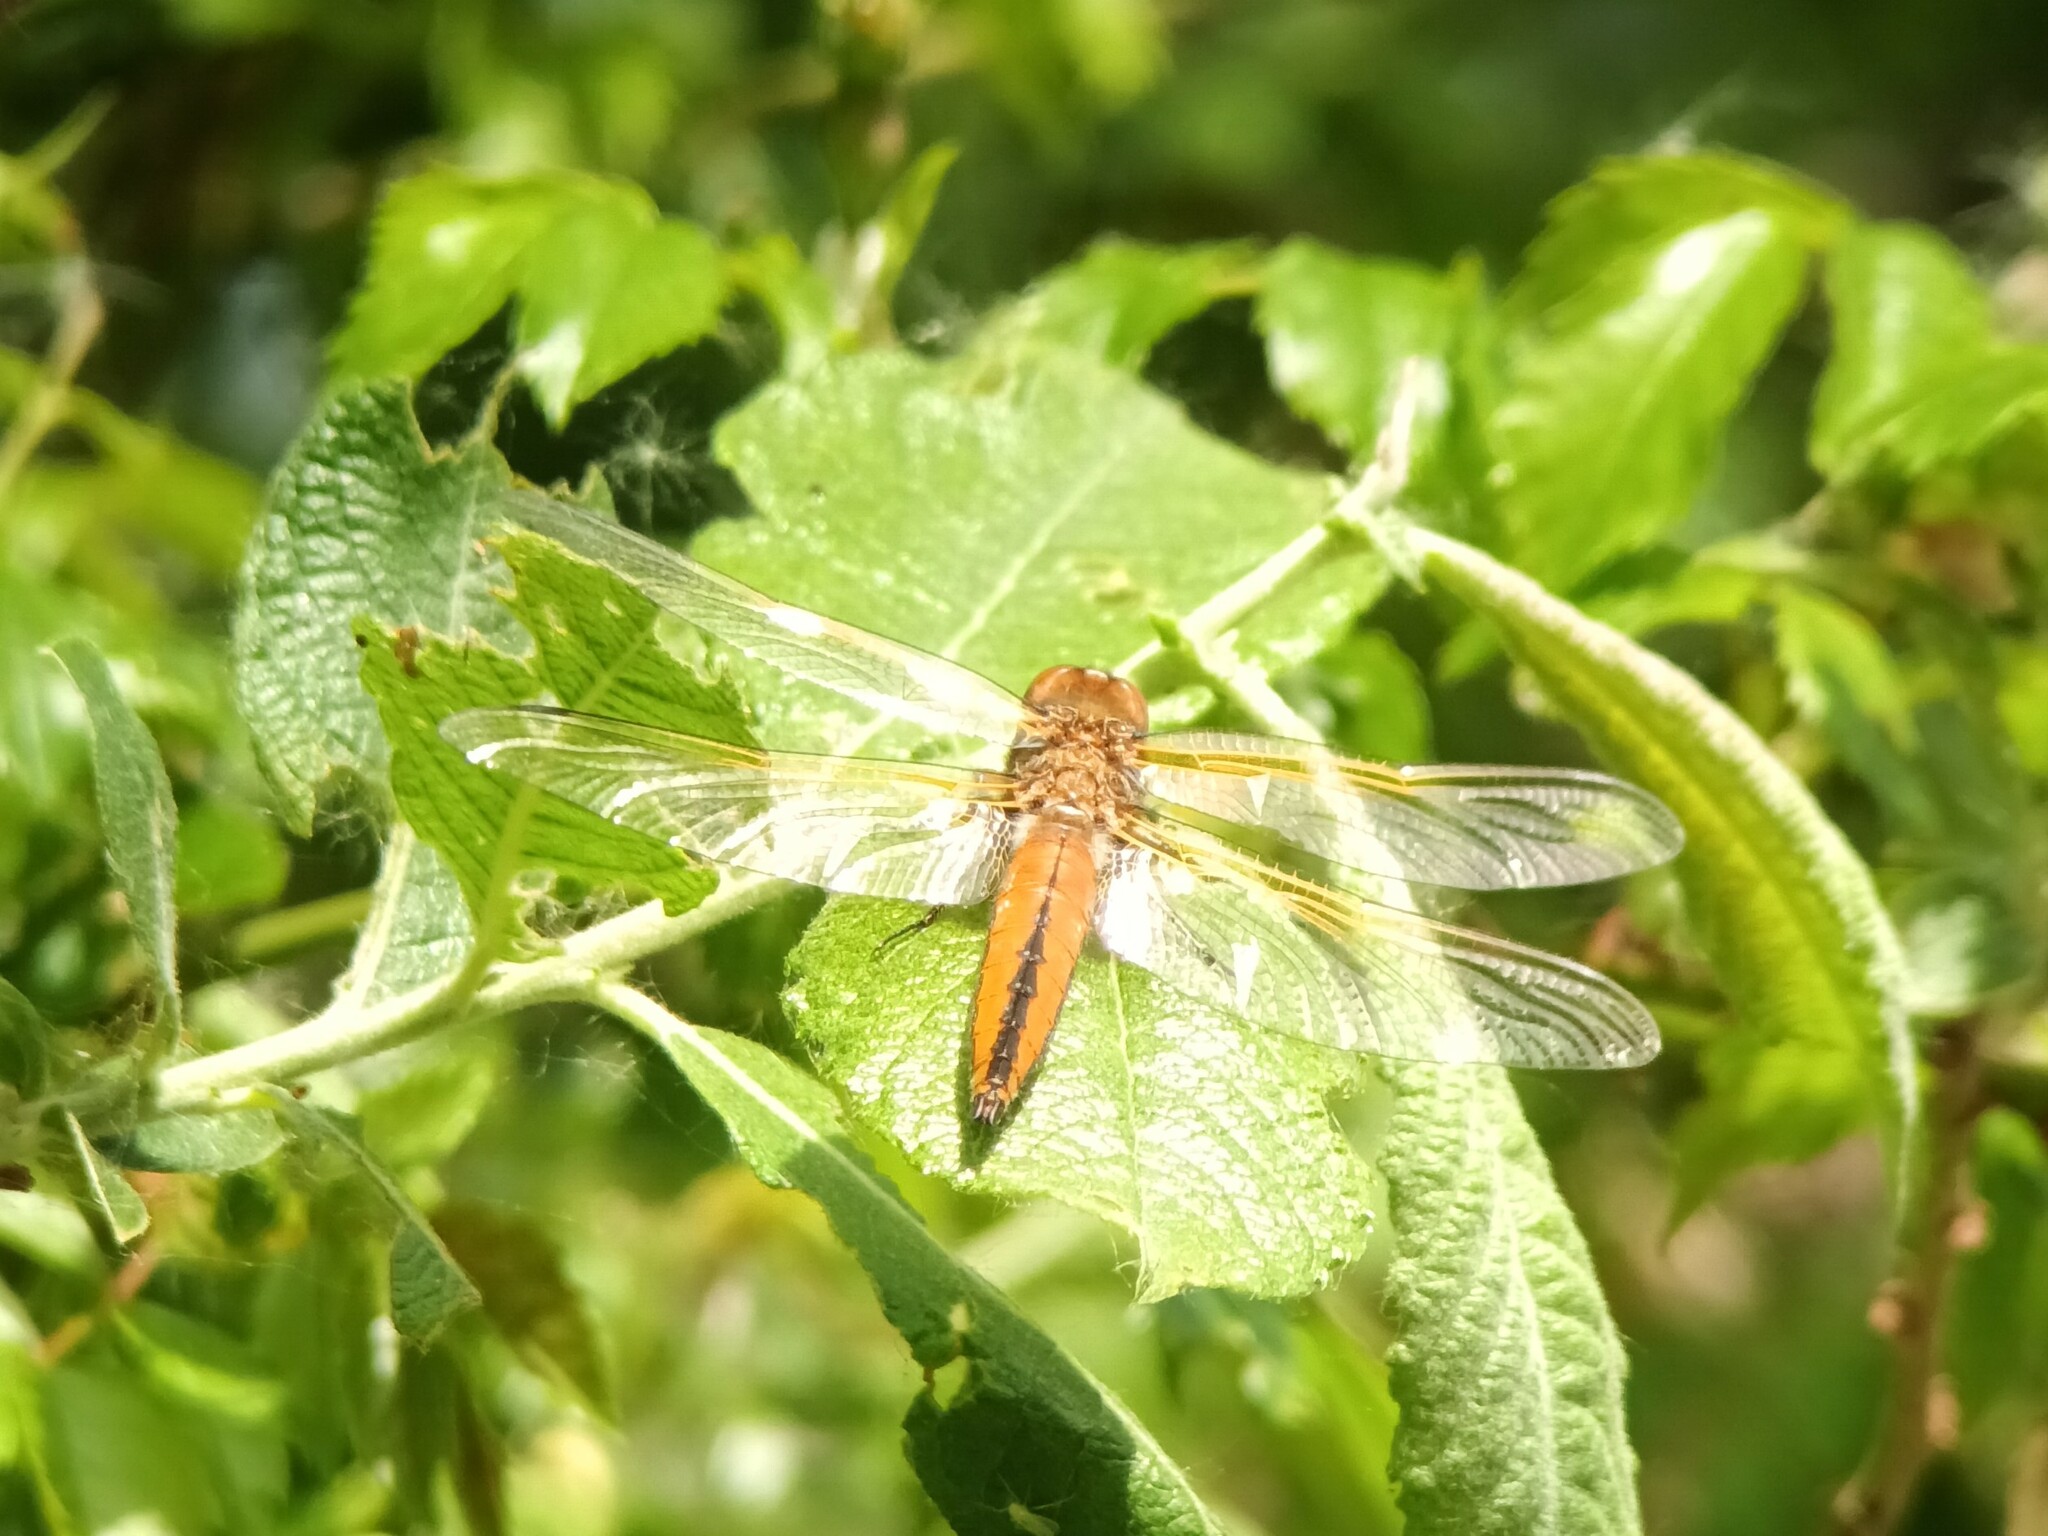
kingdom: Animalia
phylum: Arthropoda
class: Insecta
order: Odonata
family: Libellulidae
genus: Libellula
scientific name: Libellula fulva
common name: Blue chaser
